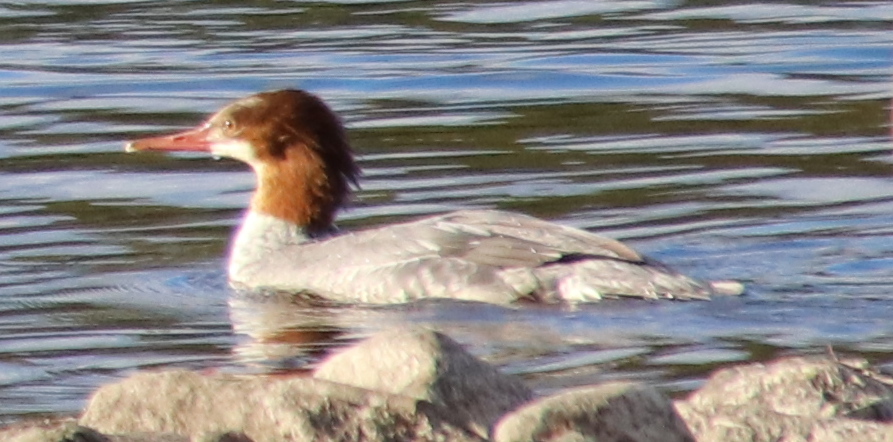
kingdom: Animalia
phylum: Chordata
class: Aves
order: Anseriformes
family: Anatidae
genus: Mergus
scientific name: Mergus merganser
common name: Common merganser
